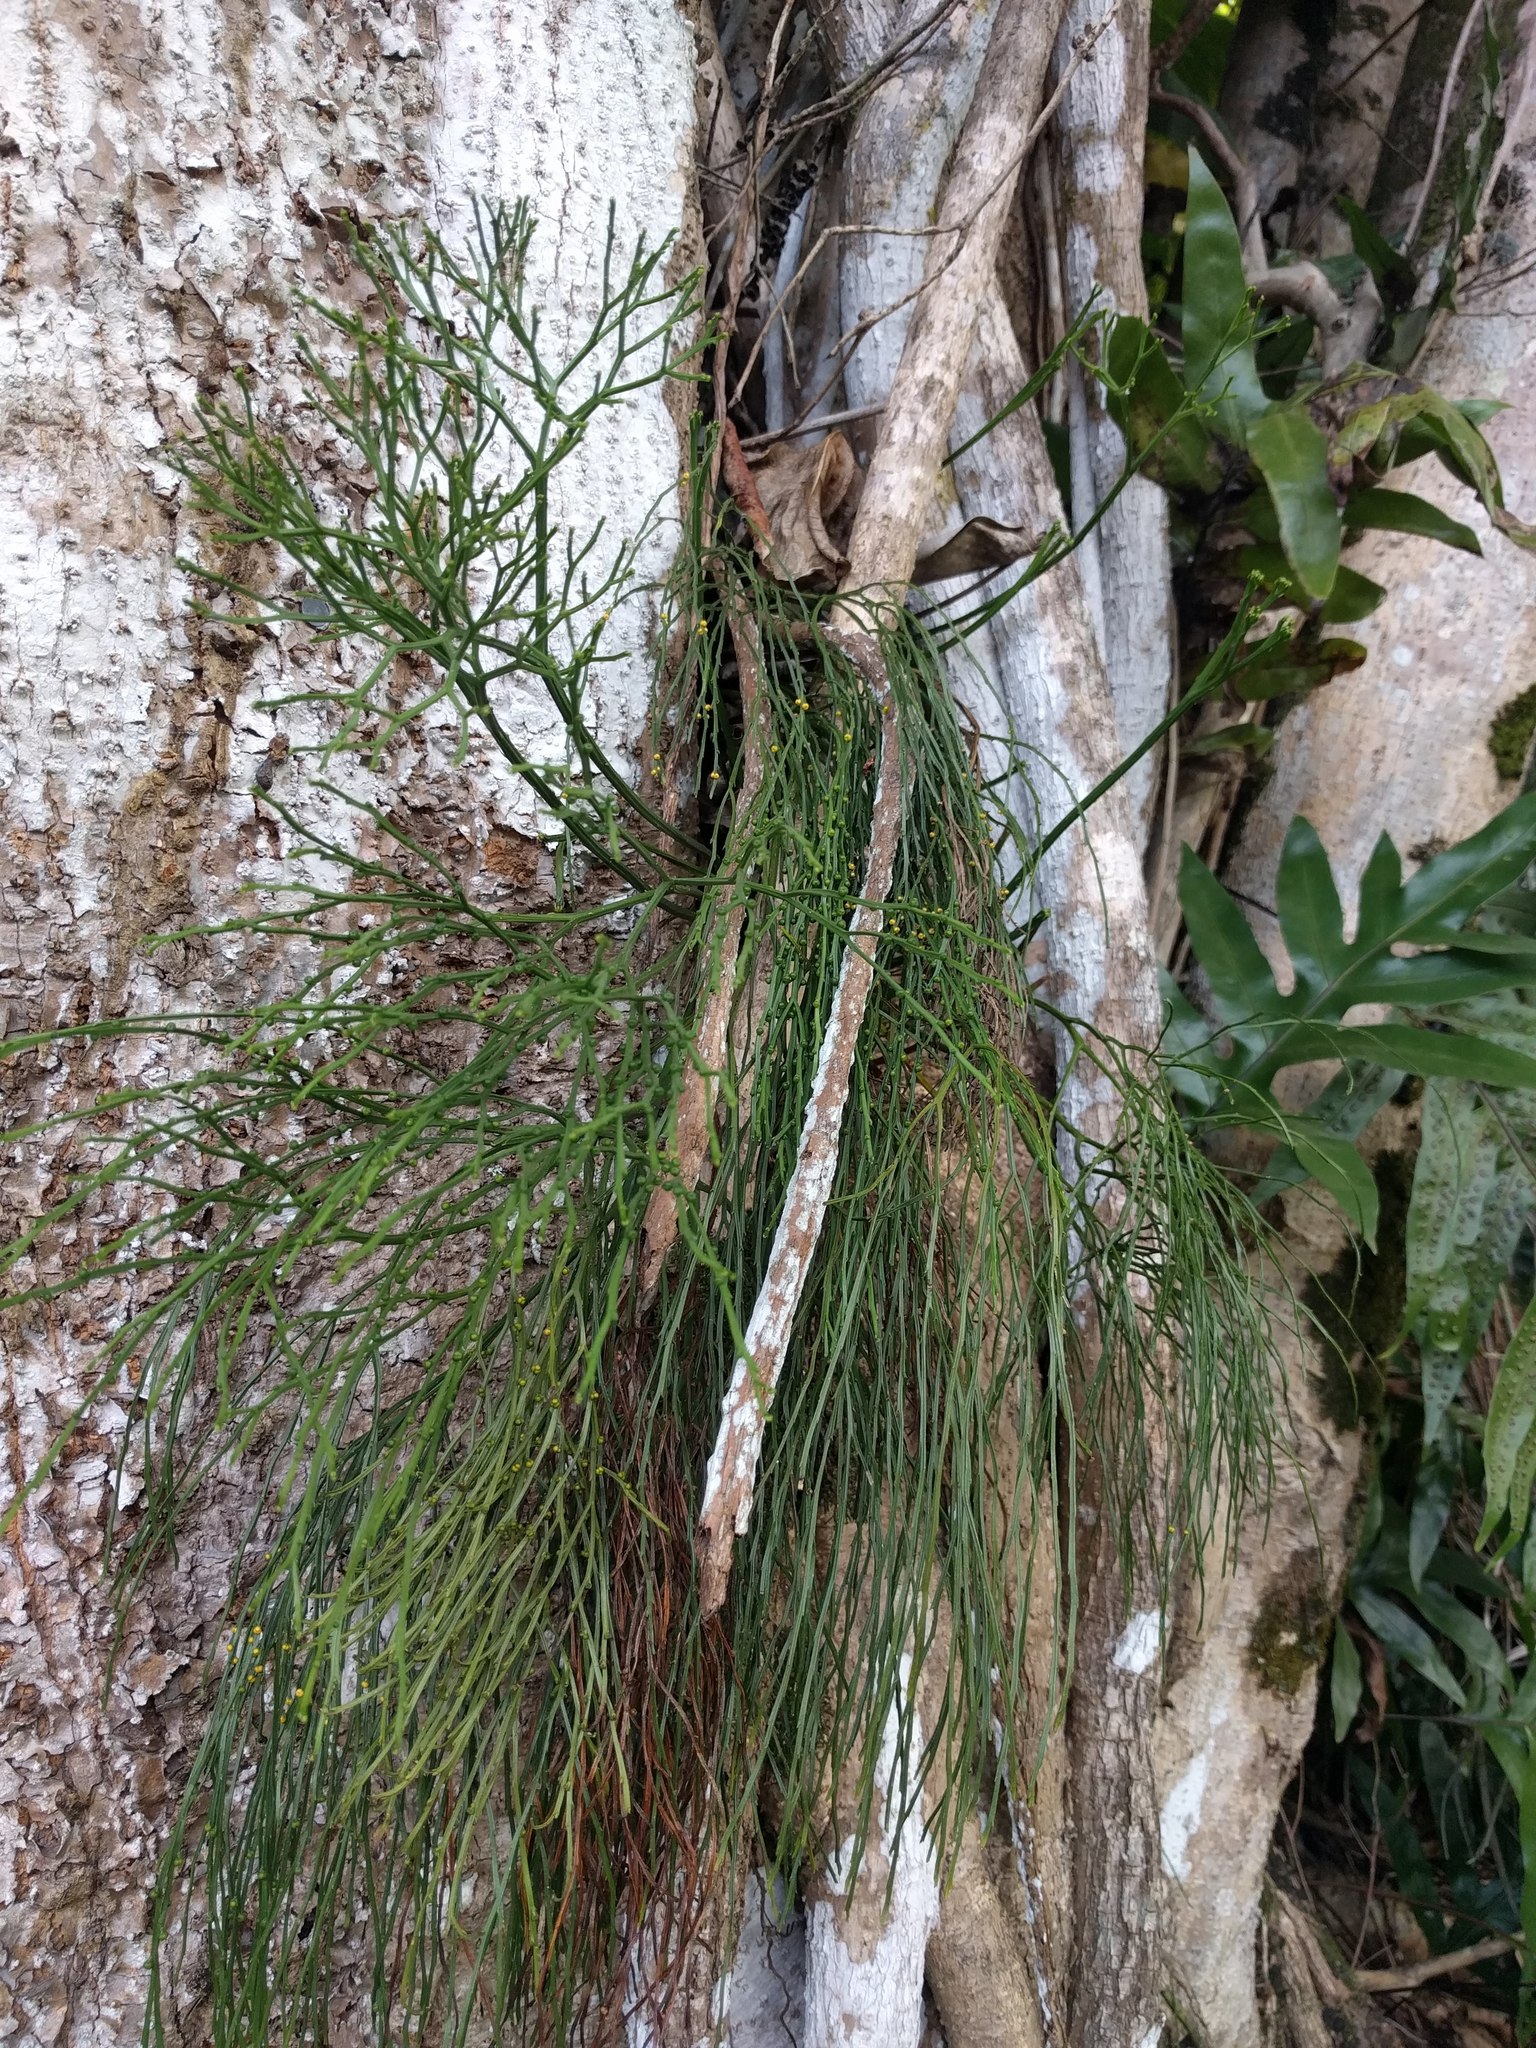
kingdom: Plantae
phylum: Tracheophyta
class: Polypodiopsida
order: Psilotales
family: Psilotaceae
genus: Psilotum
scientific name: Psilotum nudum
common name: Skeleton fork fern
